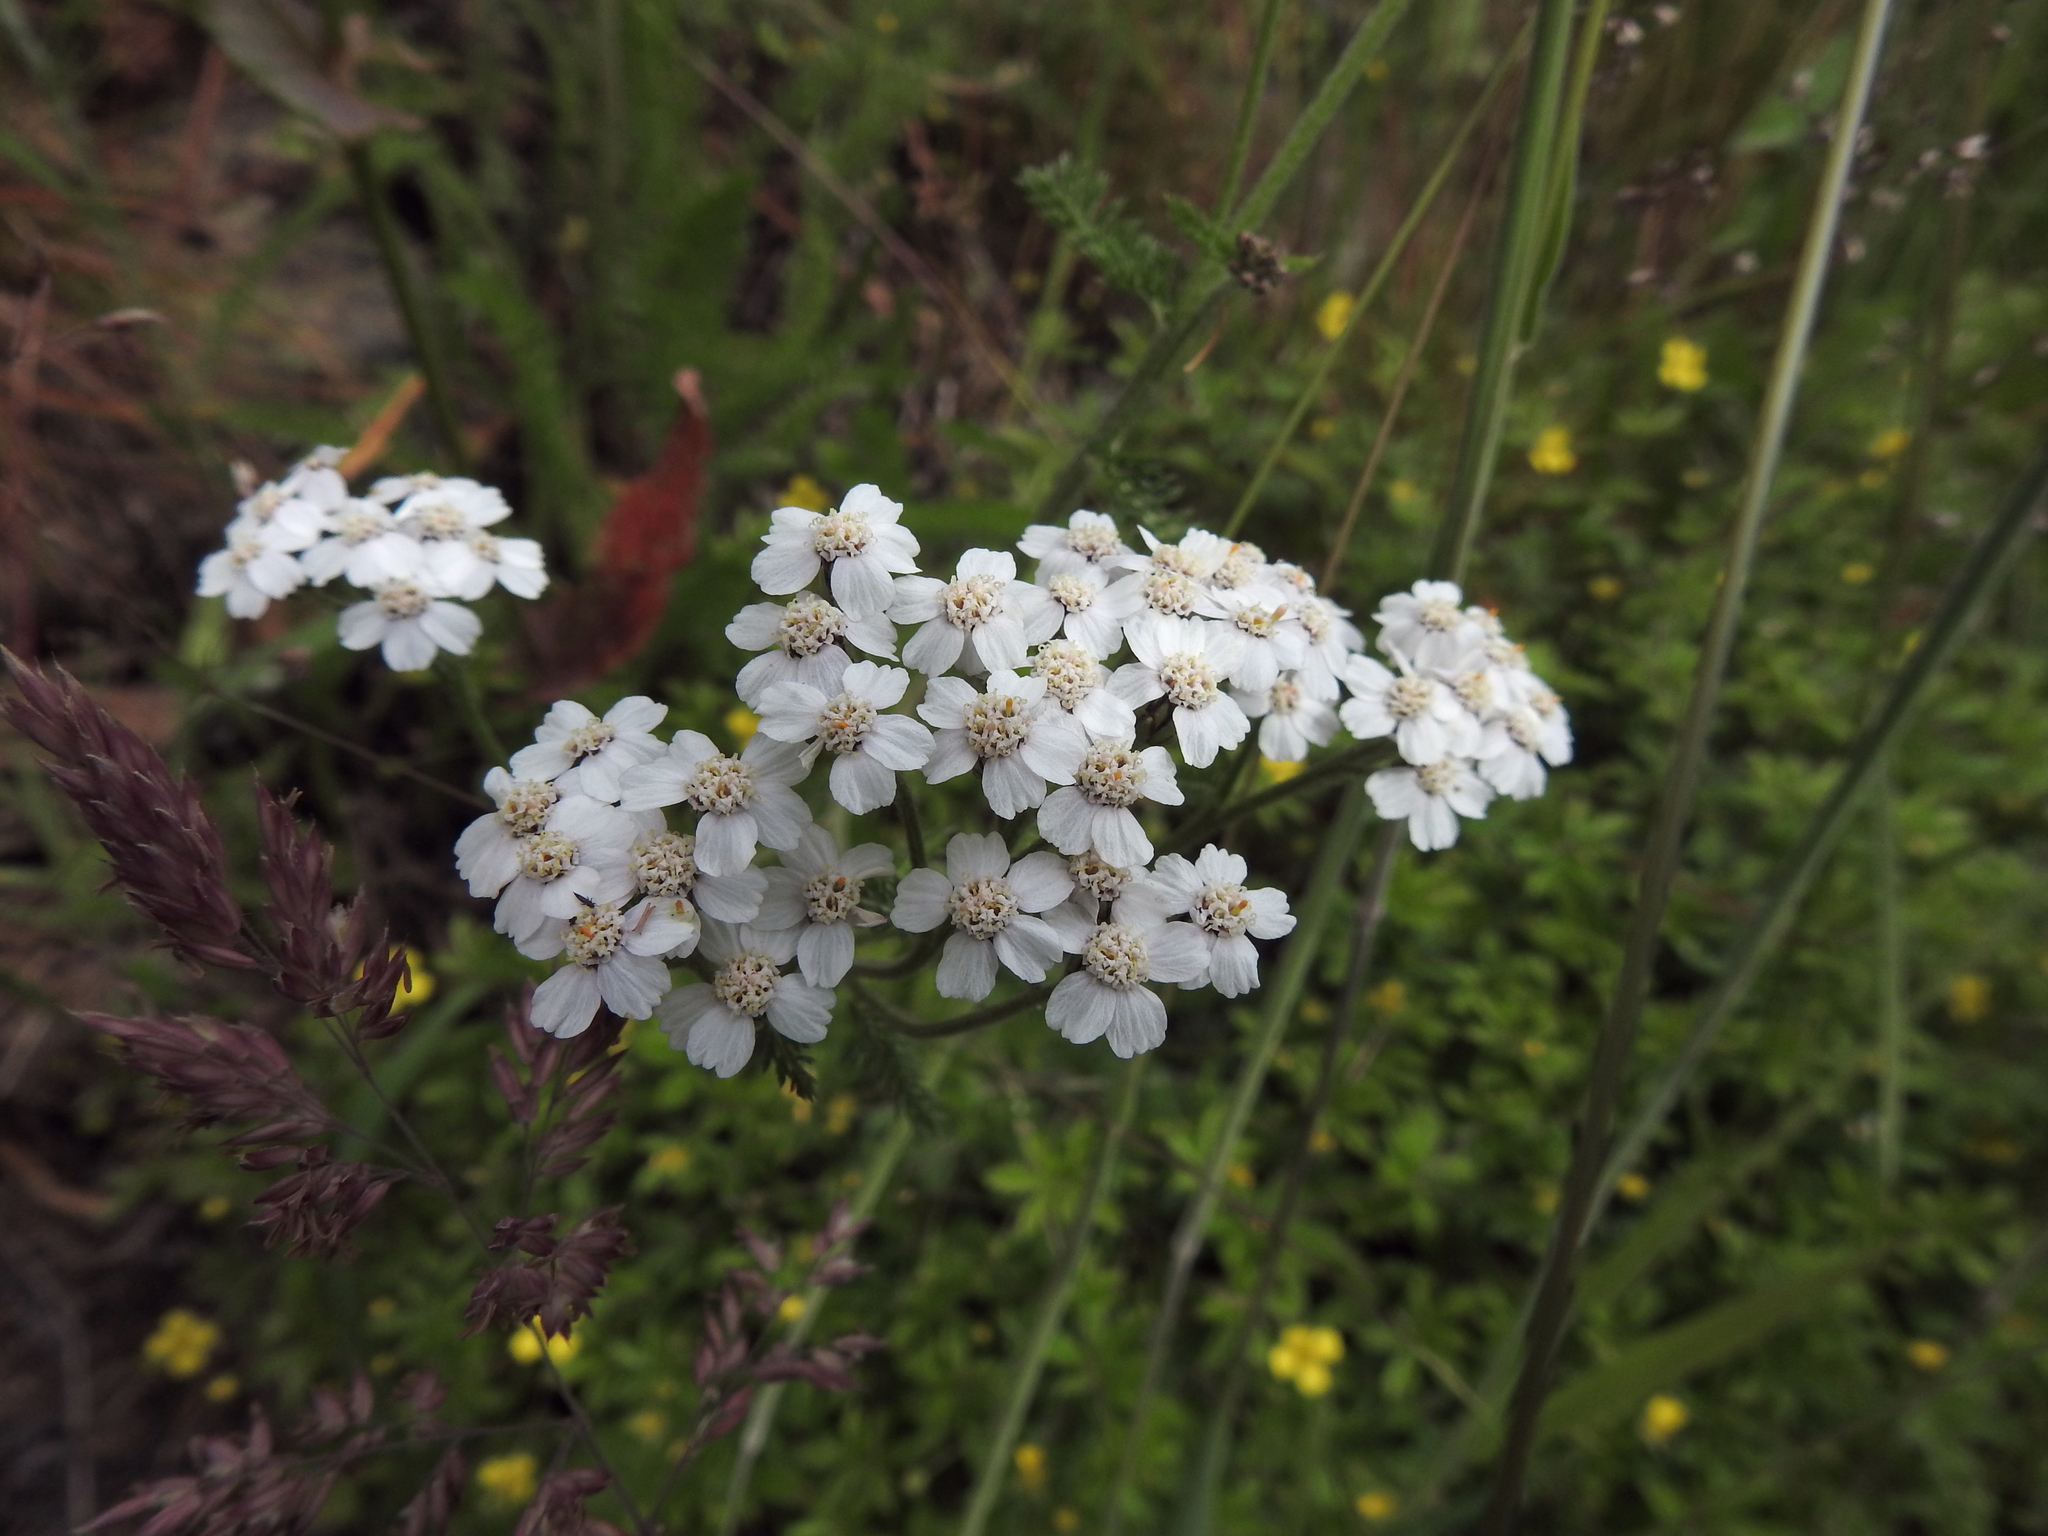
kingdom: Plantae
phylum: Tracheophyta
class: Magnoliopsida
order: Asterales
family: Asteraceae
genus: Achillea
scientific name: Achillea millefolium
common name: Yarrow
